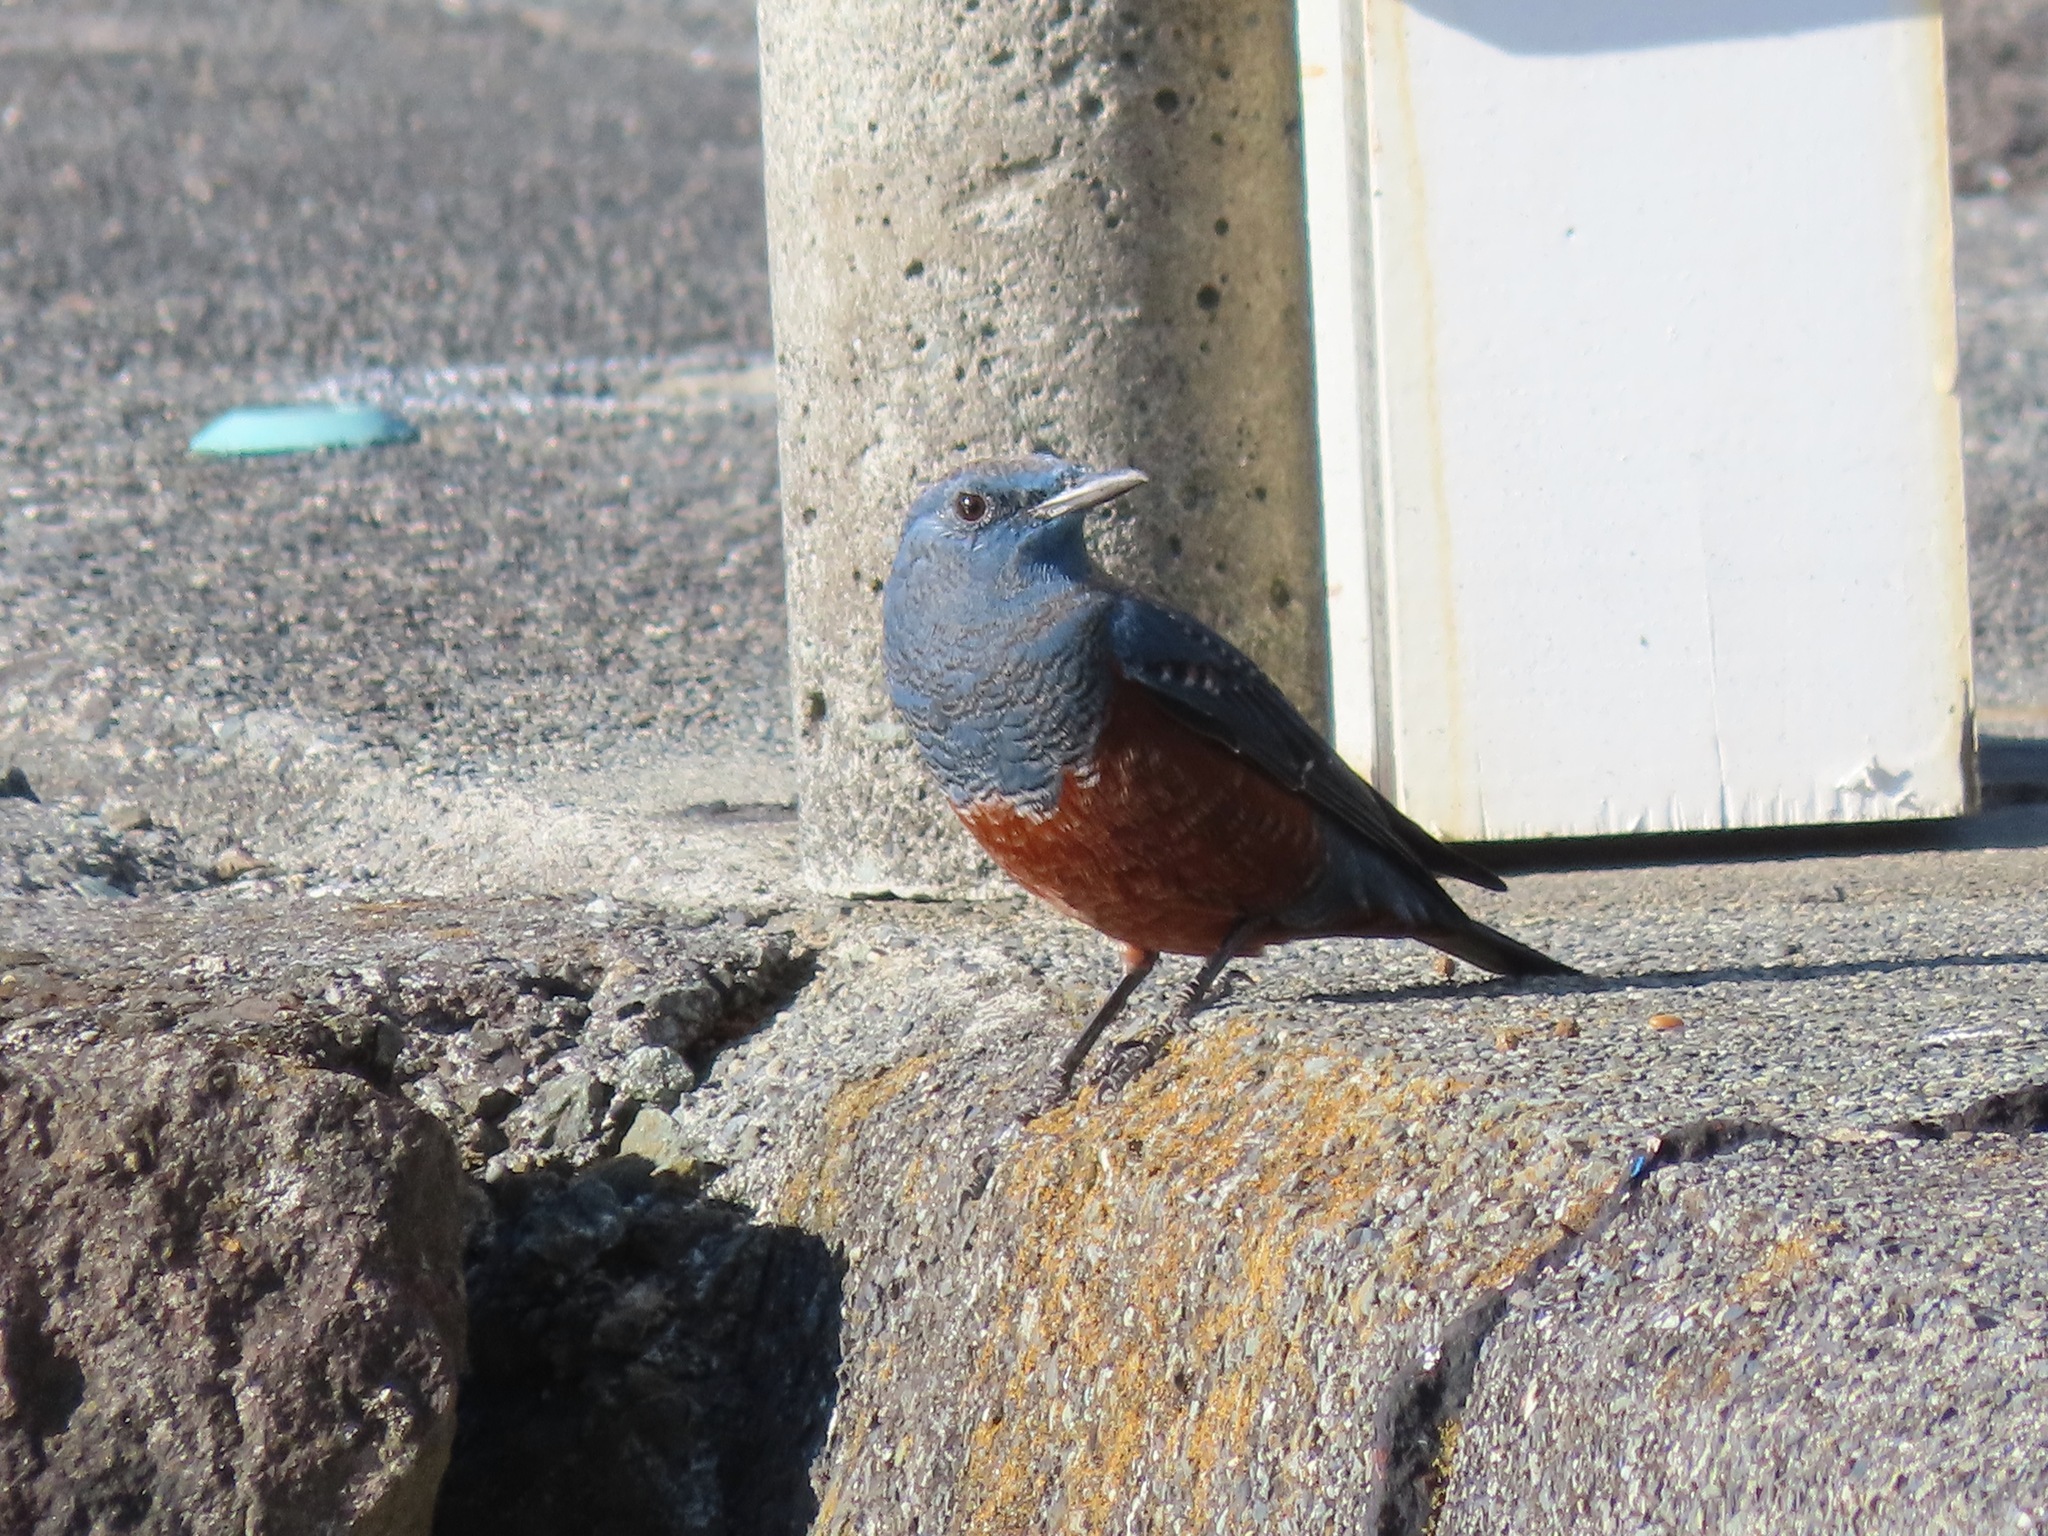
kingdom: Animalia
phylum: Chordata
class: Aves
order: Passeriformes
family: Muscicapidae
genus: Monticola
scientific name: Monticola solitarius
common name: Blue rock thrush
